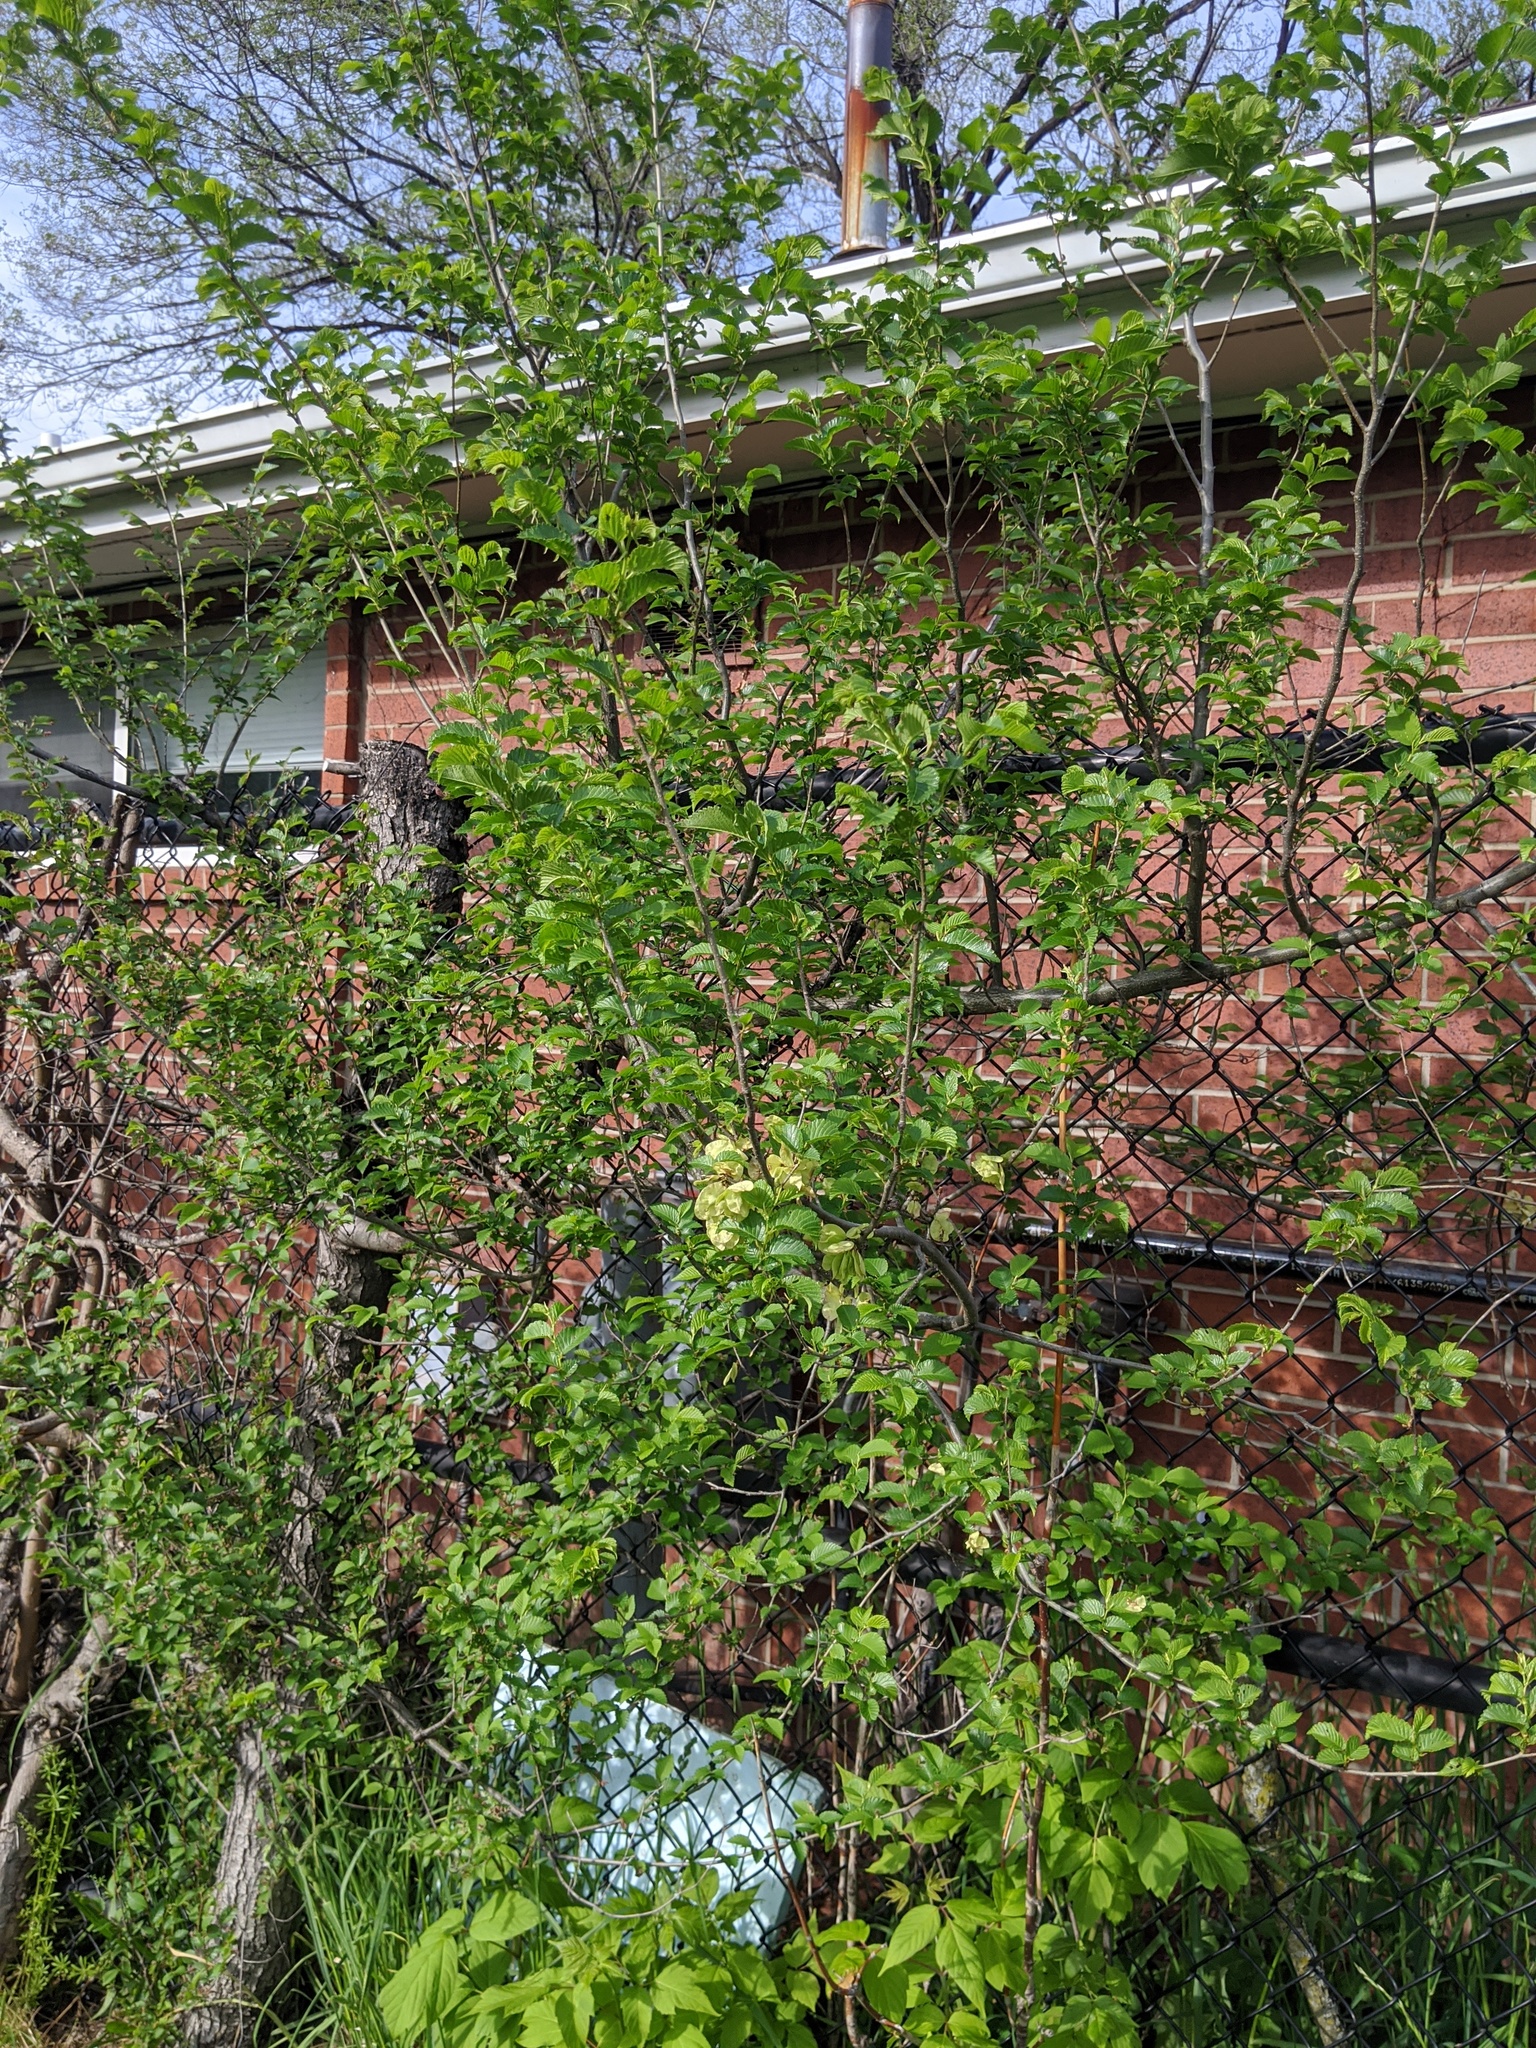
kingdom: Plantae
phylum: Tracheophyta
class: Magnoliopsida
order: Rosales
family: Ulmaceae
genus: Ulmus
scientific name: Ulmus pumila
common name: Siberian elm
